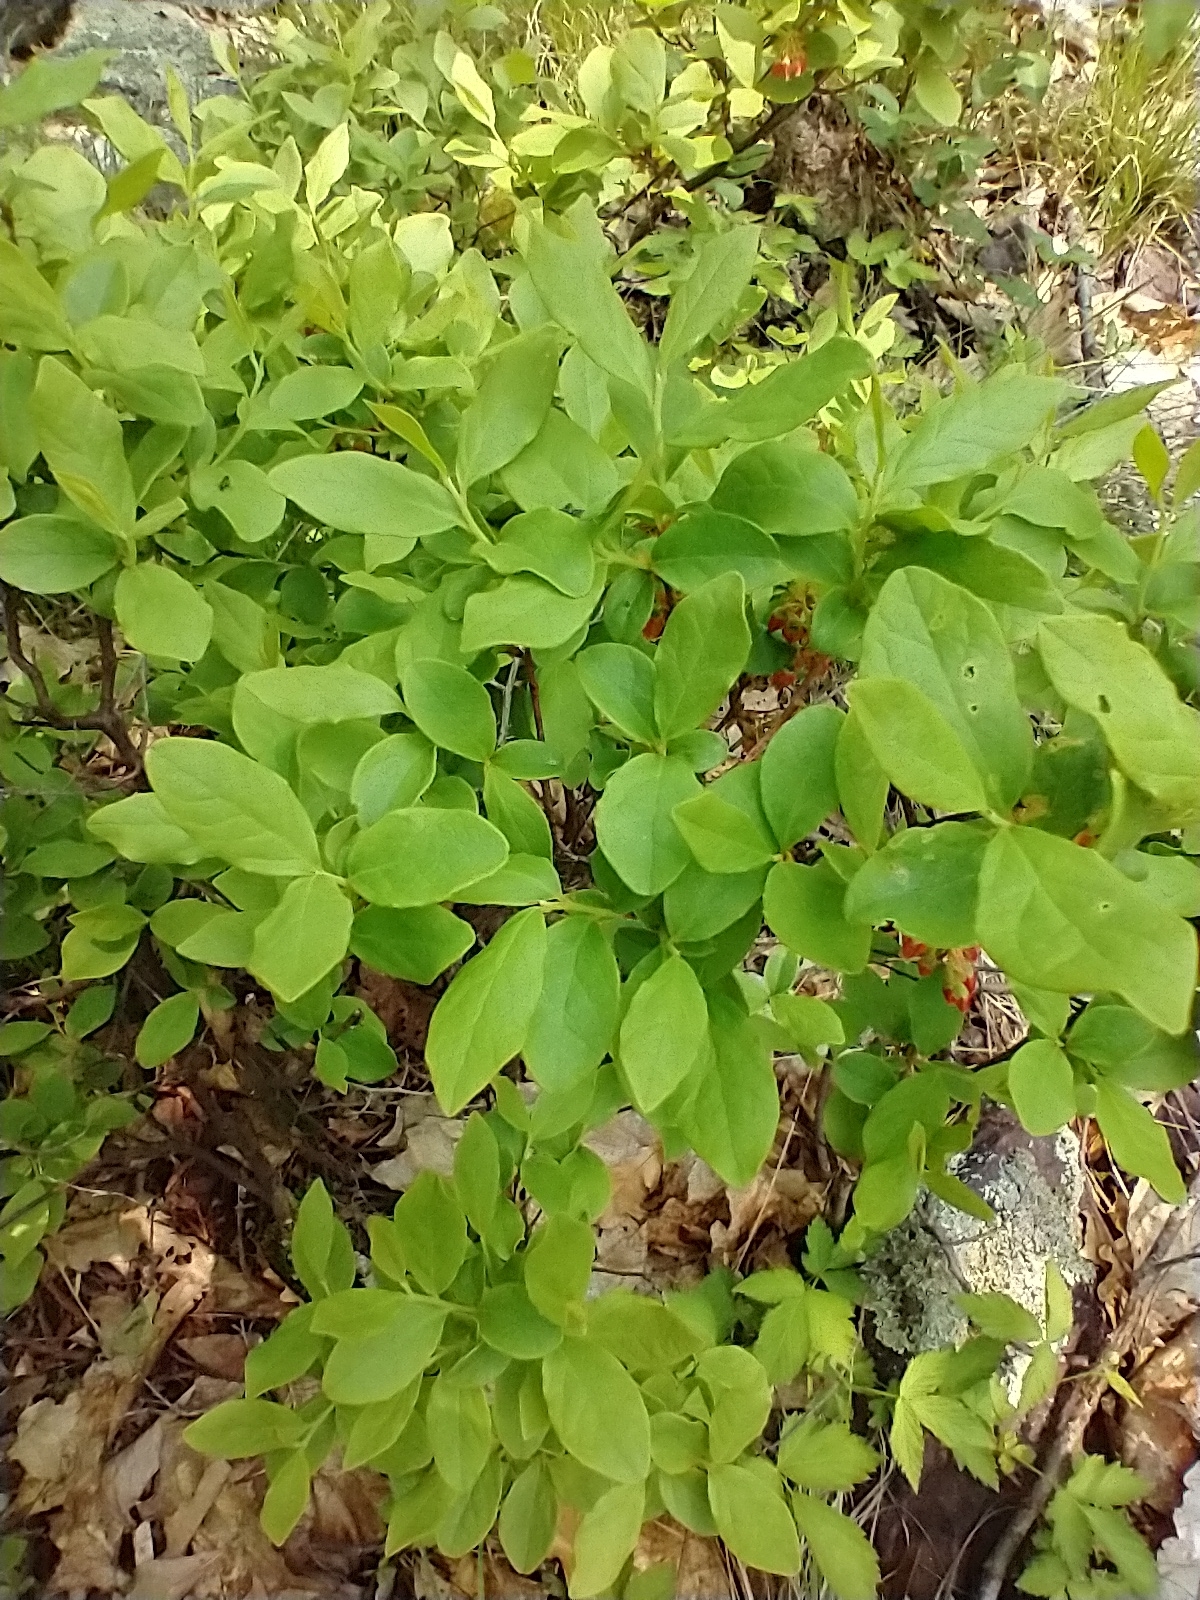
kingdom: Plantae
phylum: Tracheophyta
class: Magnoliopsida
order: Ericales
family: Ericaceae
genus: Gaylussacia
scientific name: Gaylussacia baccata
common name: Black huckleberry
